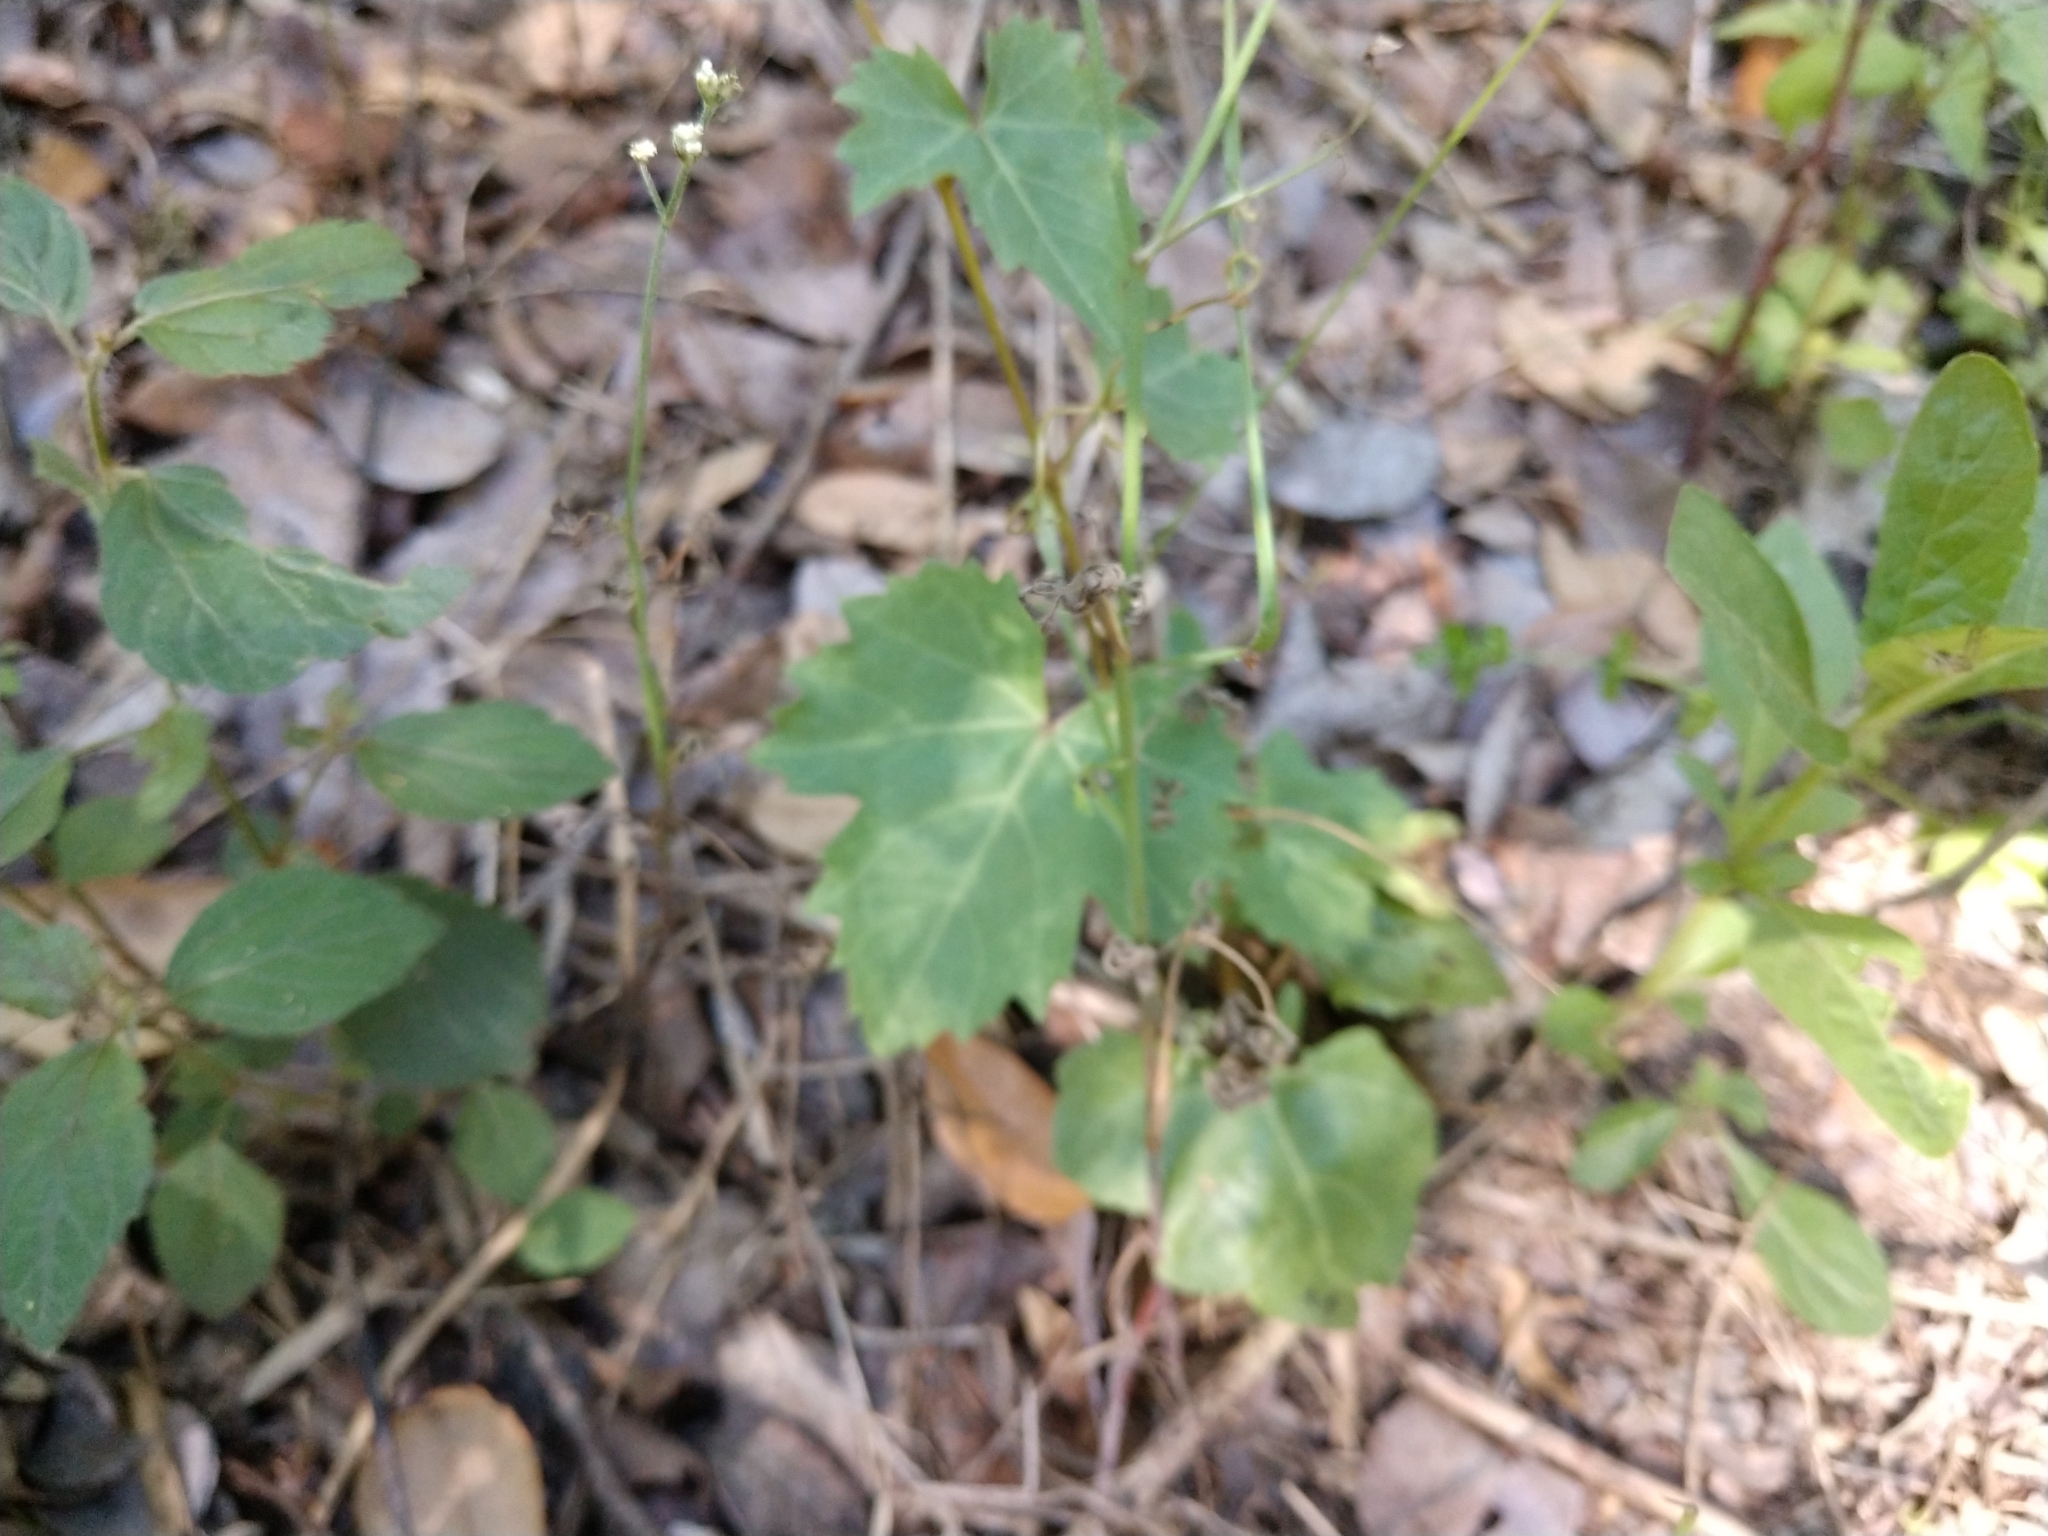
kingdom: Plantae
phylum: Tracheophyta
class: Magnoliopsida
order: Vitales
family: Vitaceae
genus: Cissus
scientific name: Cissus trifoliata
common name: Vine-sorrel
